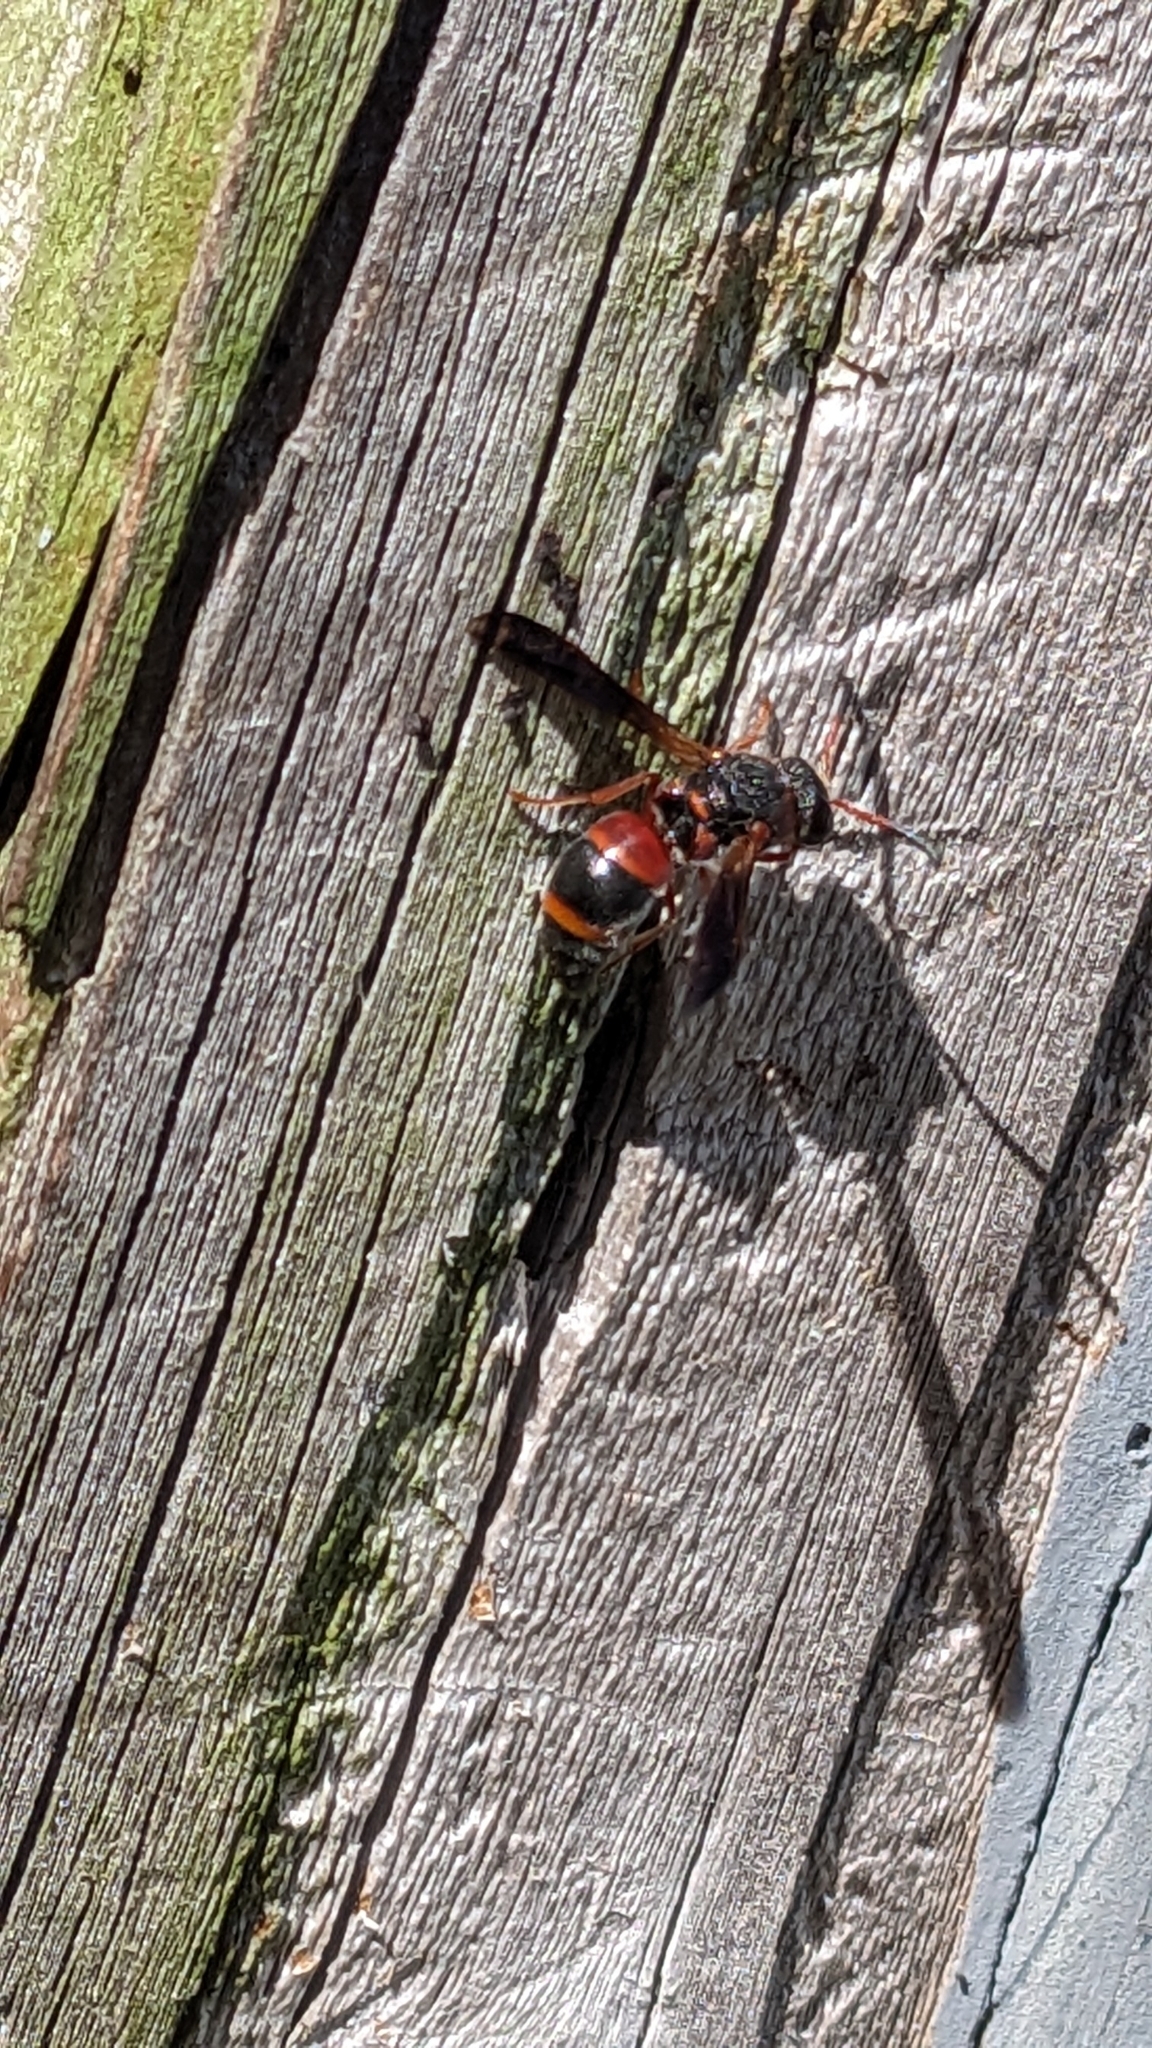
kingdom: Animalia
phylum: Arthropoda
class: Insecta
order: Hymenoptera
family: Eumenidae
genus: Pachodynerus
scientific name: Pachodynerus erynnis
